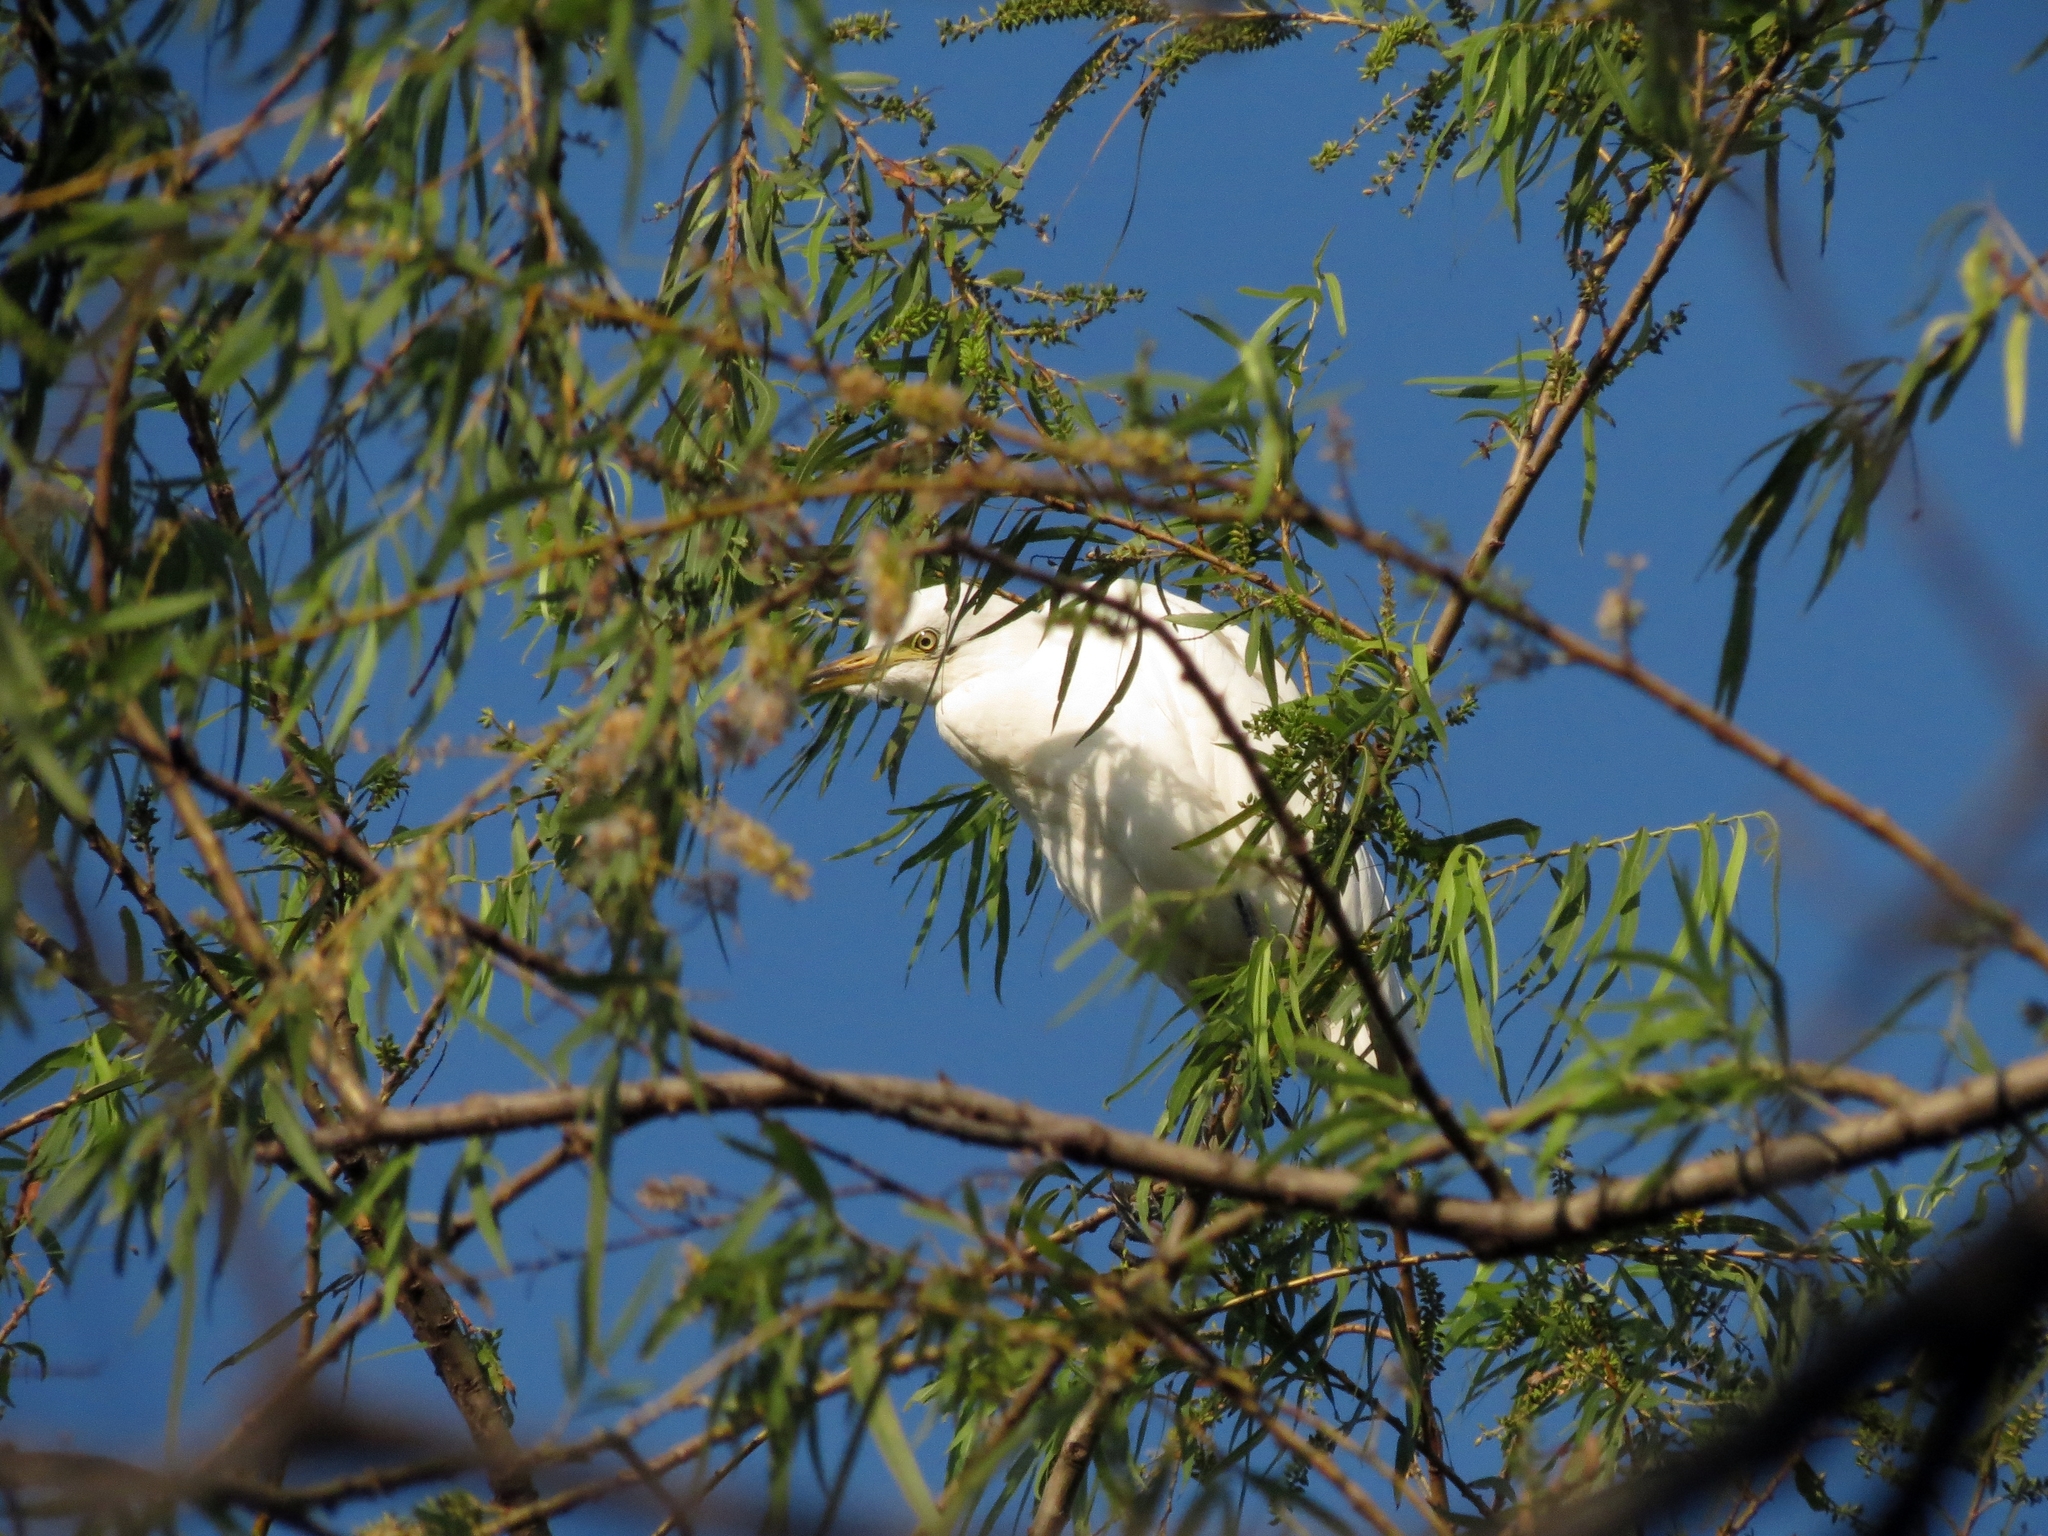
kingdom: Animalia
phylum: Chordata
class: Aves
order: Pelecaniformes
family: Ardeidae
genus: Bubulcus
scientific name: Bubulcus ibis
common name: Cattle egret
